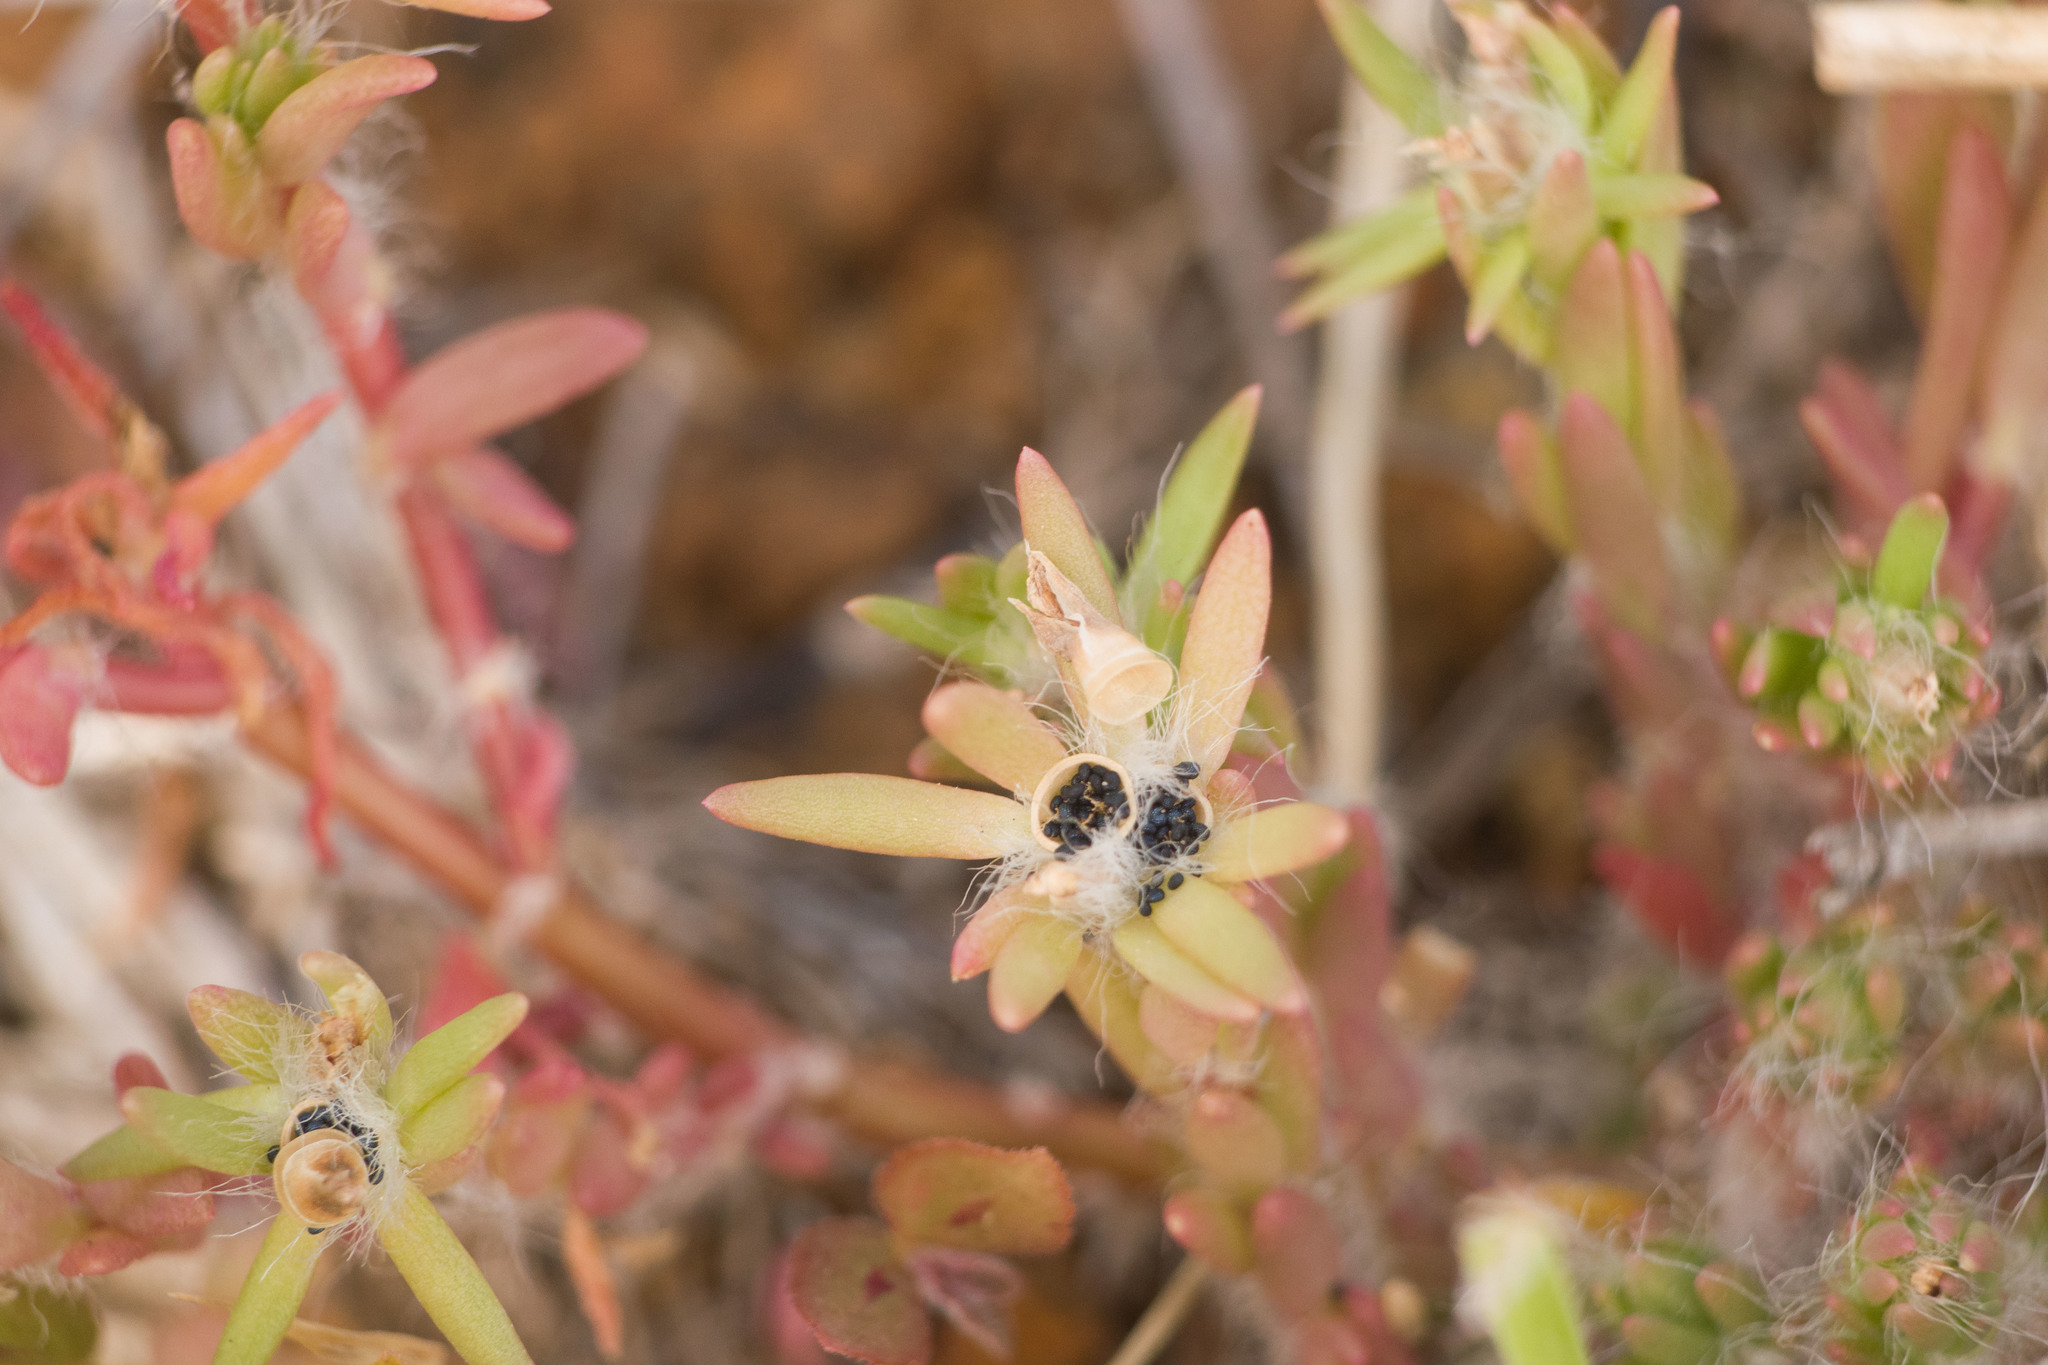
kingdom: Plantae
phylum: Tracheophyta
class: Magnoliopsida
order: Caryophyllales
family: Portulacaceae
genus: Portulaca
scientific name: Portulaca pilosa
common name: Kiss me quick
